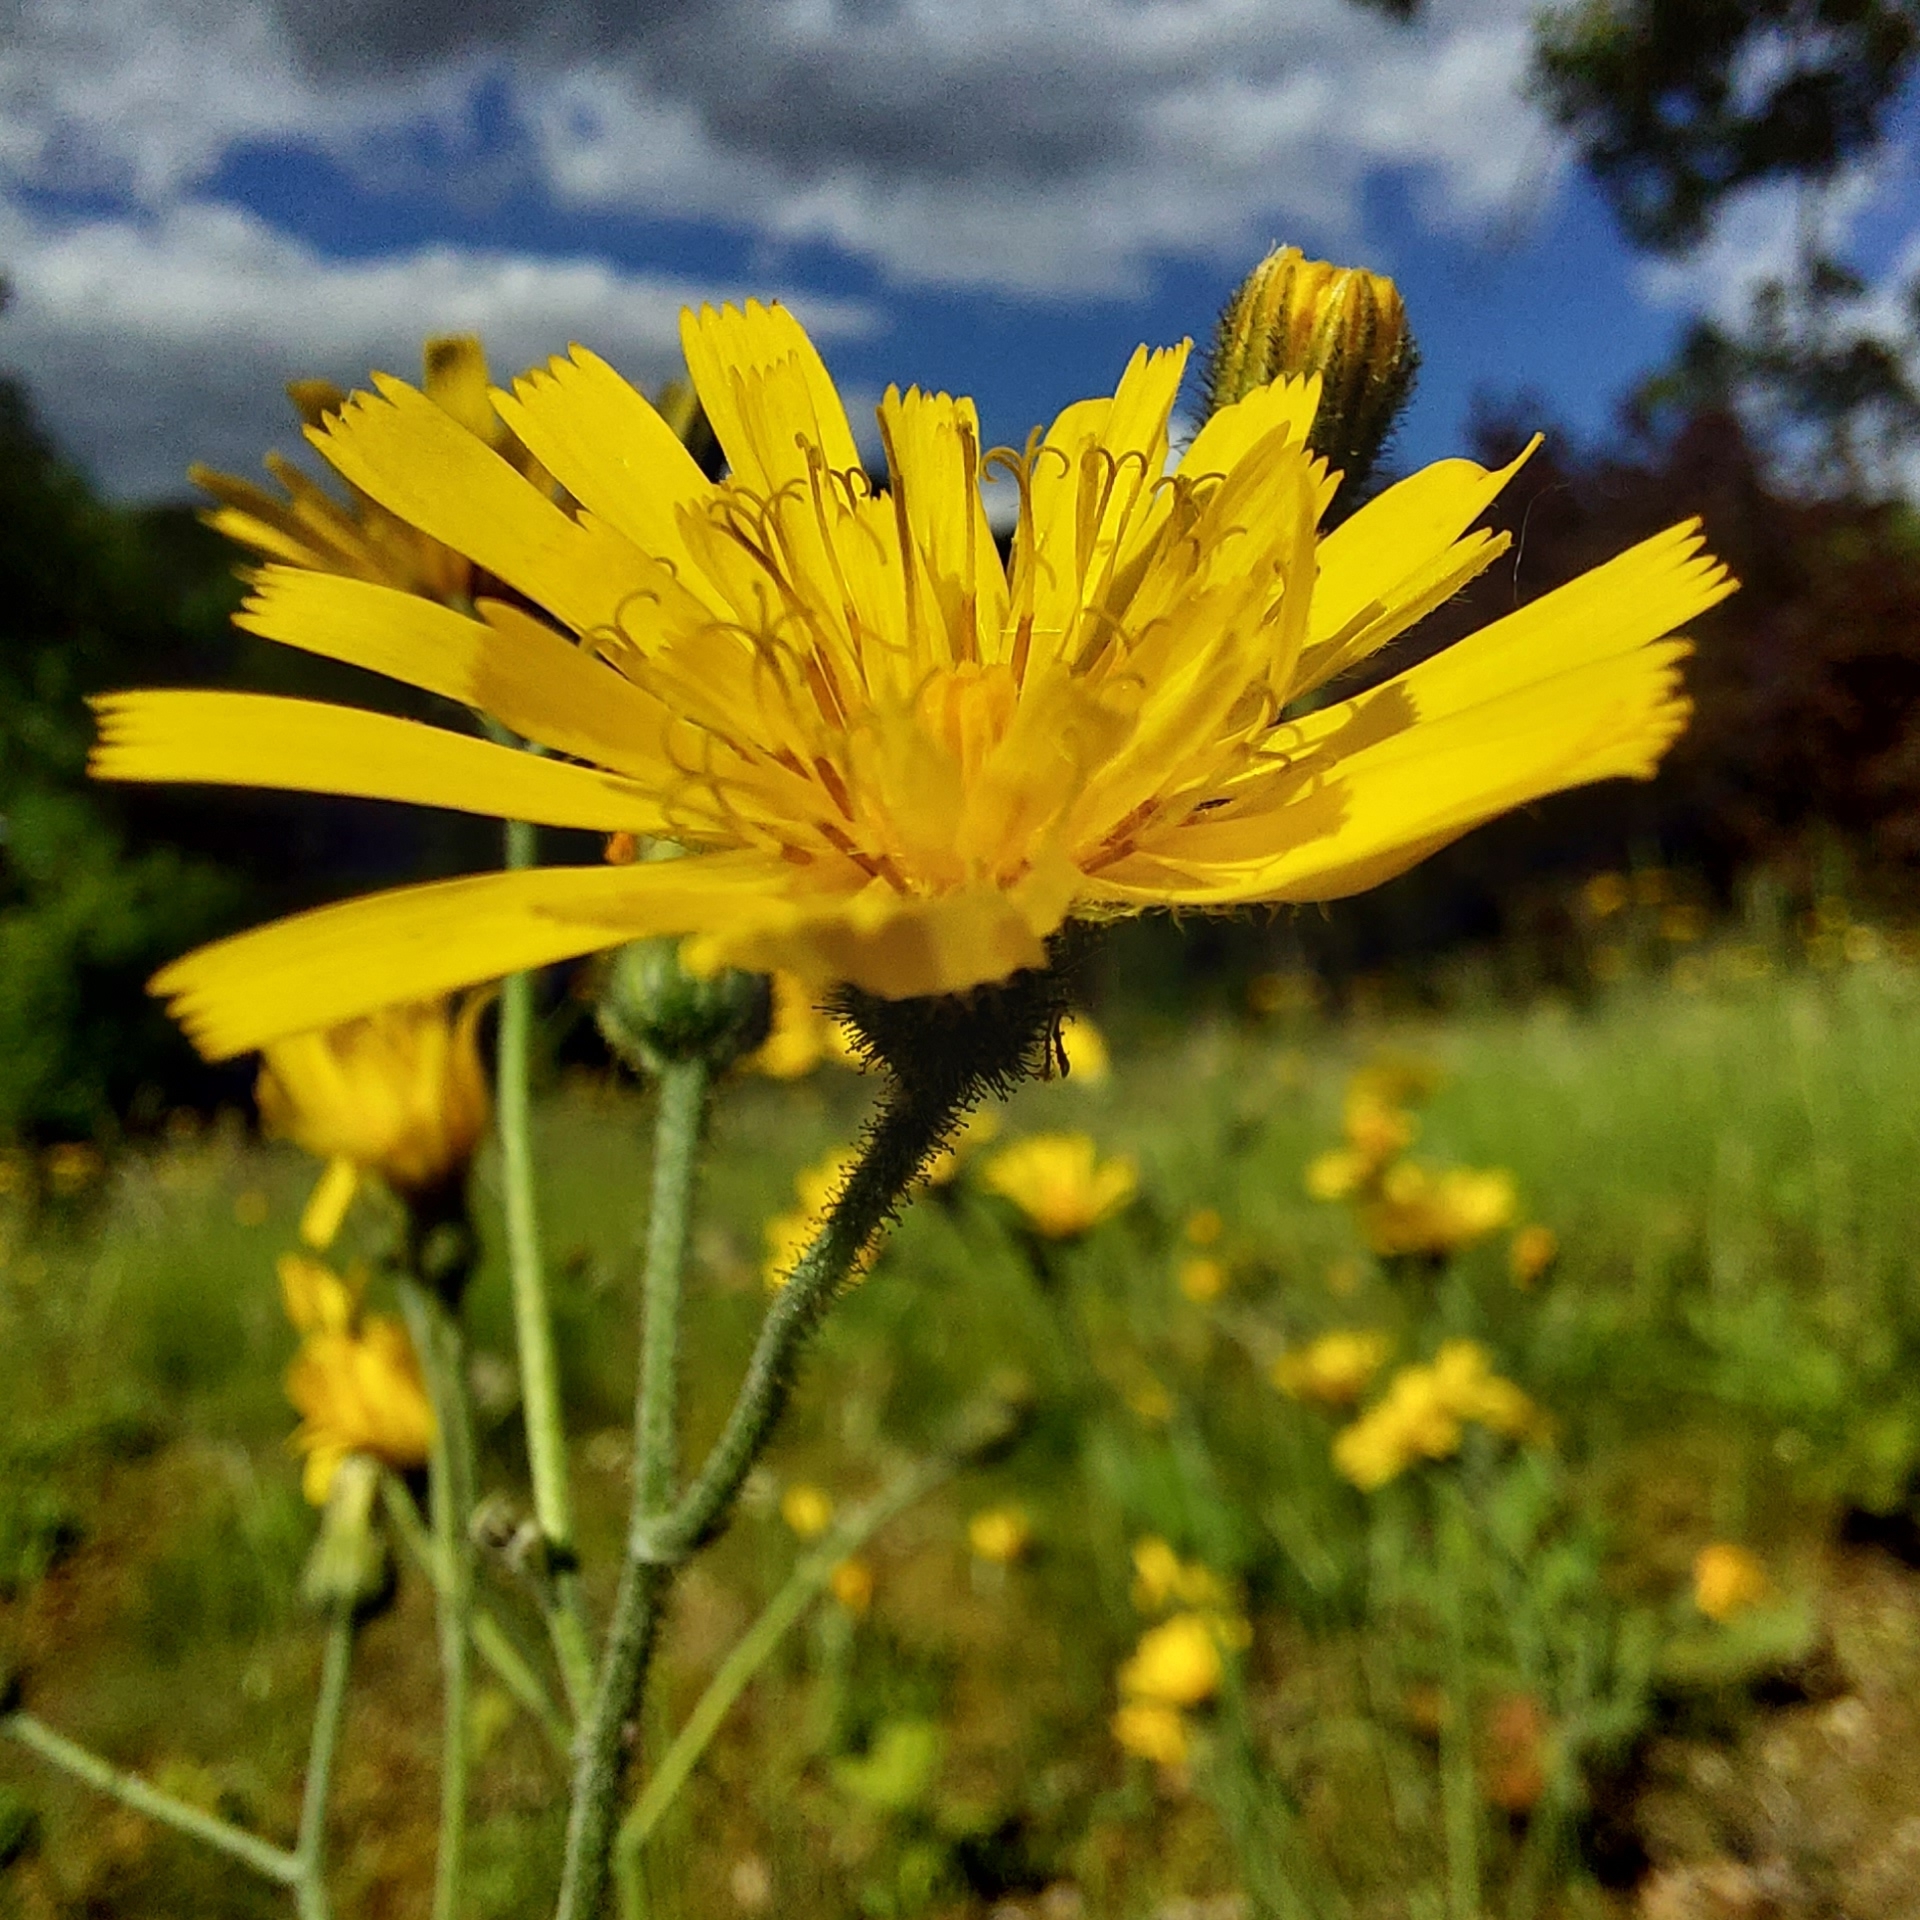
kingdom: Plantae
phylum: Tracheophyta
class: Magnoliopsida
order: Asterales
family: Asteraceae
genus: Hieracium
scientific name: Hieracium murorum
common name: Wall hawkweed
